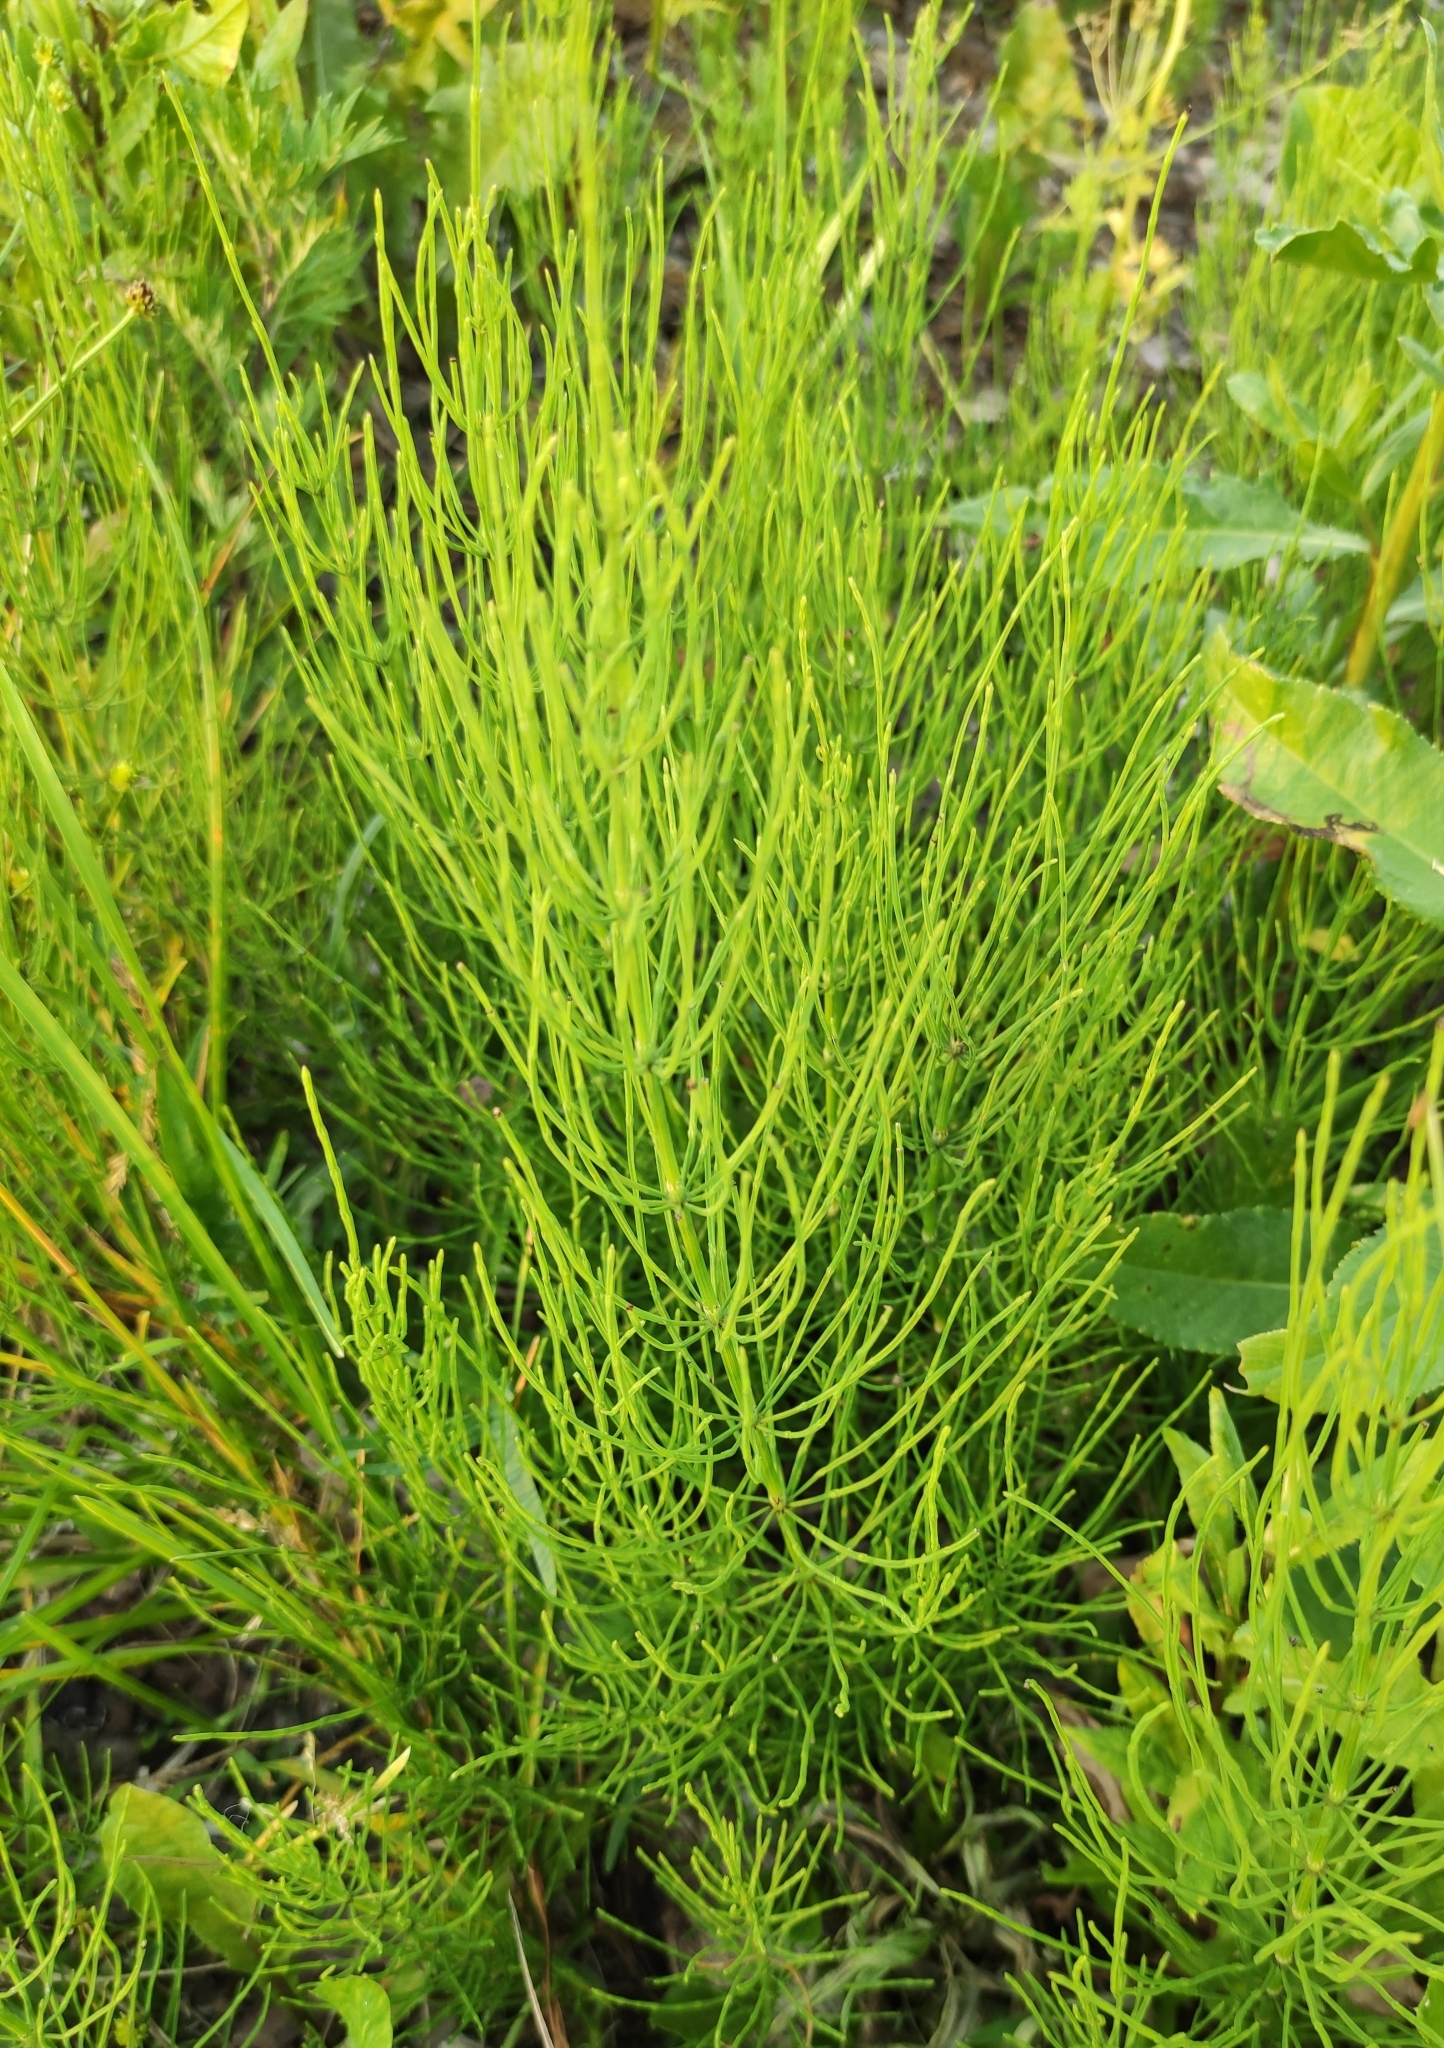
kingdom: Plantae
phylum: Tracheophyta
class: Polypodiopsida
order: Equisetales
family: Equisetaceae
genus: Equisetum
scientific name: Equisetum arvense
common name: Field horsetail
